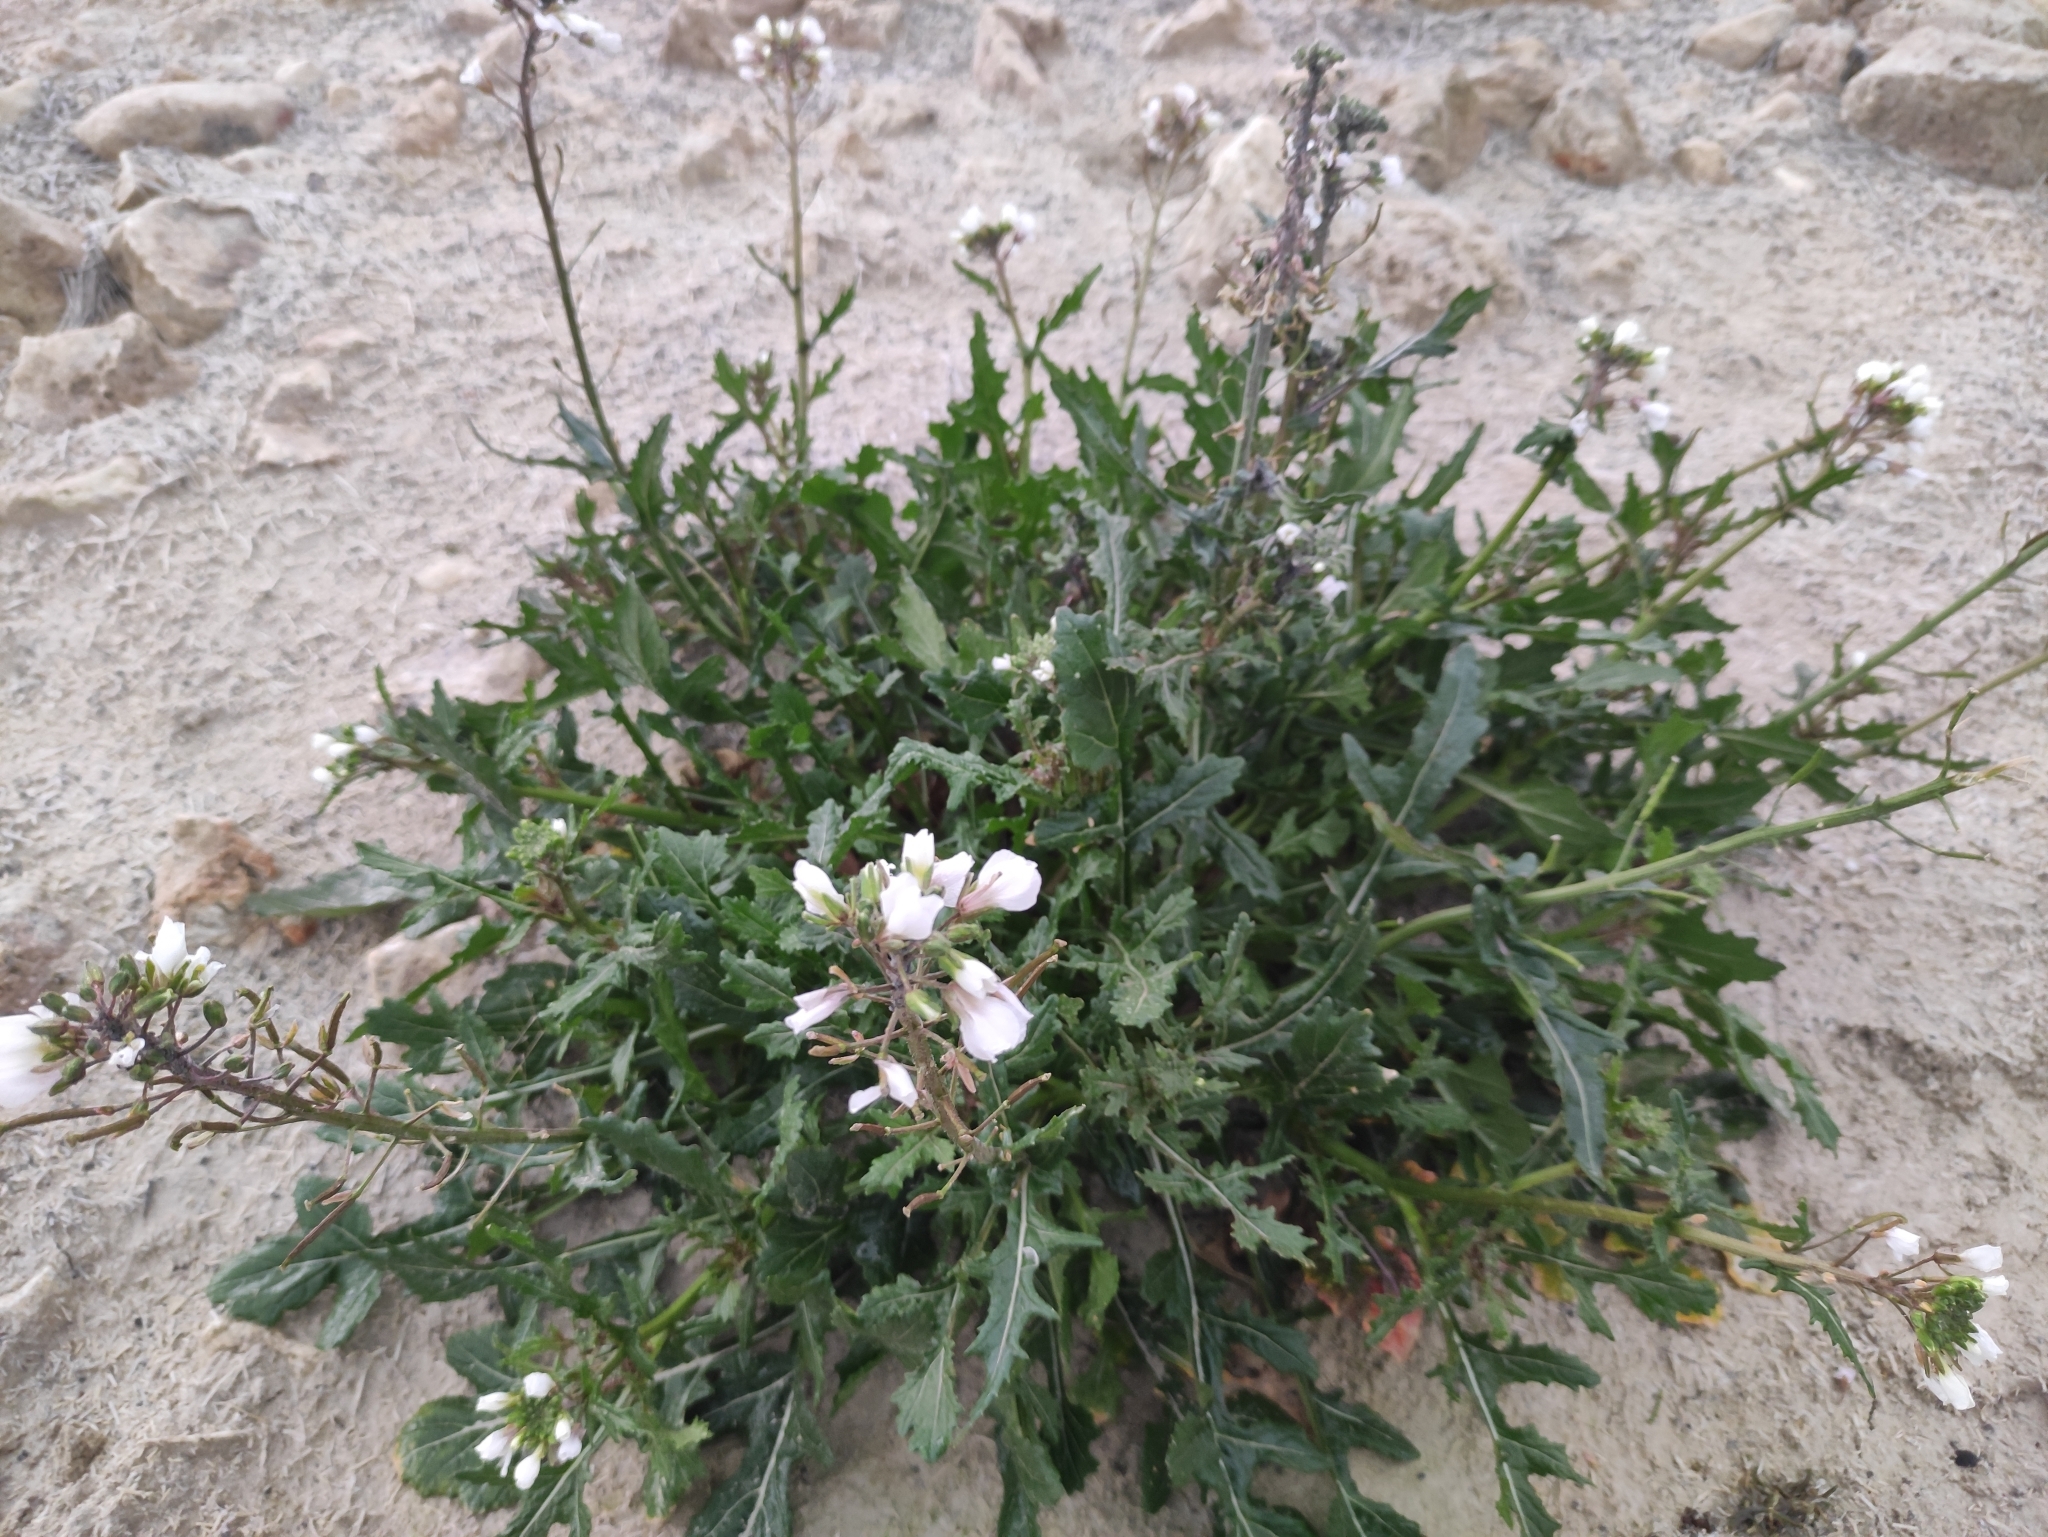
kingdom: Plantae
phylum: Tracheophyta
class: Magnoliopsida
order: Brassicales
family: Brassicaceae
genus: Diplotaxis
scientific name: Diplotaxis erucoides
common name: White rocket
